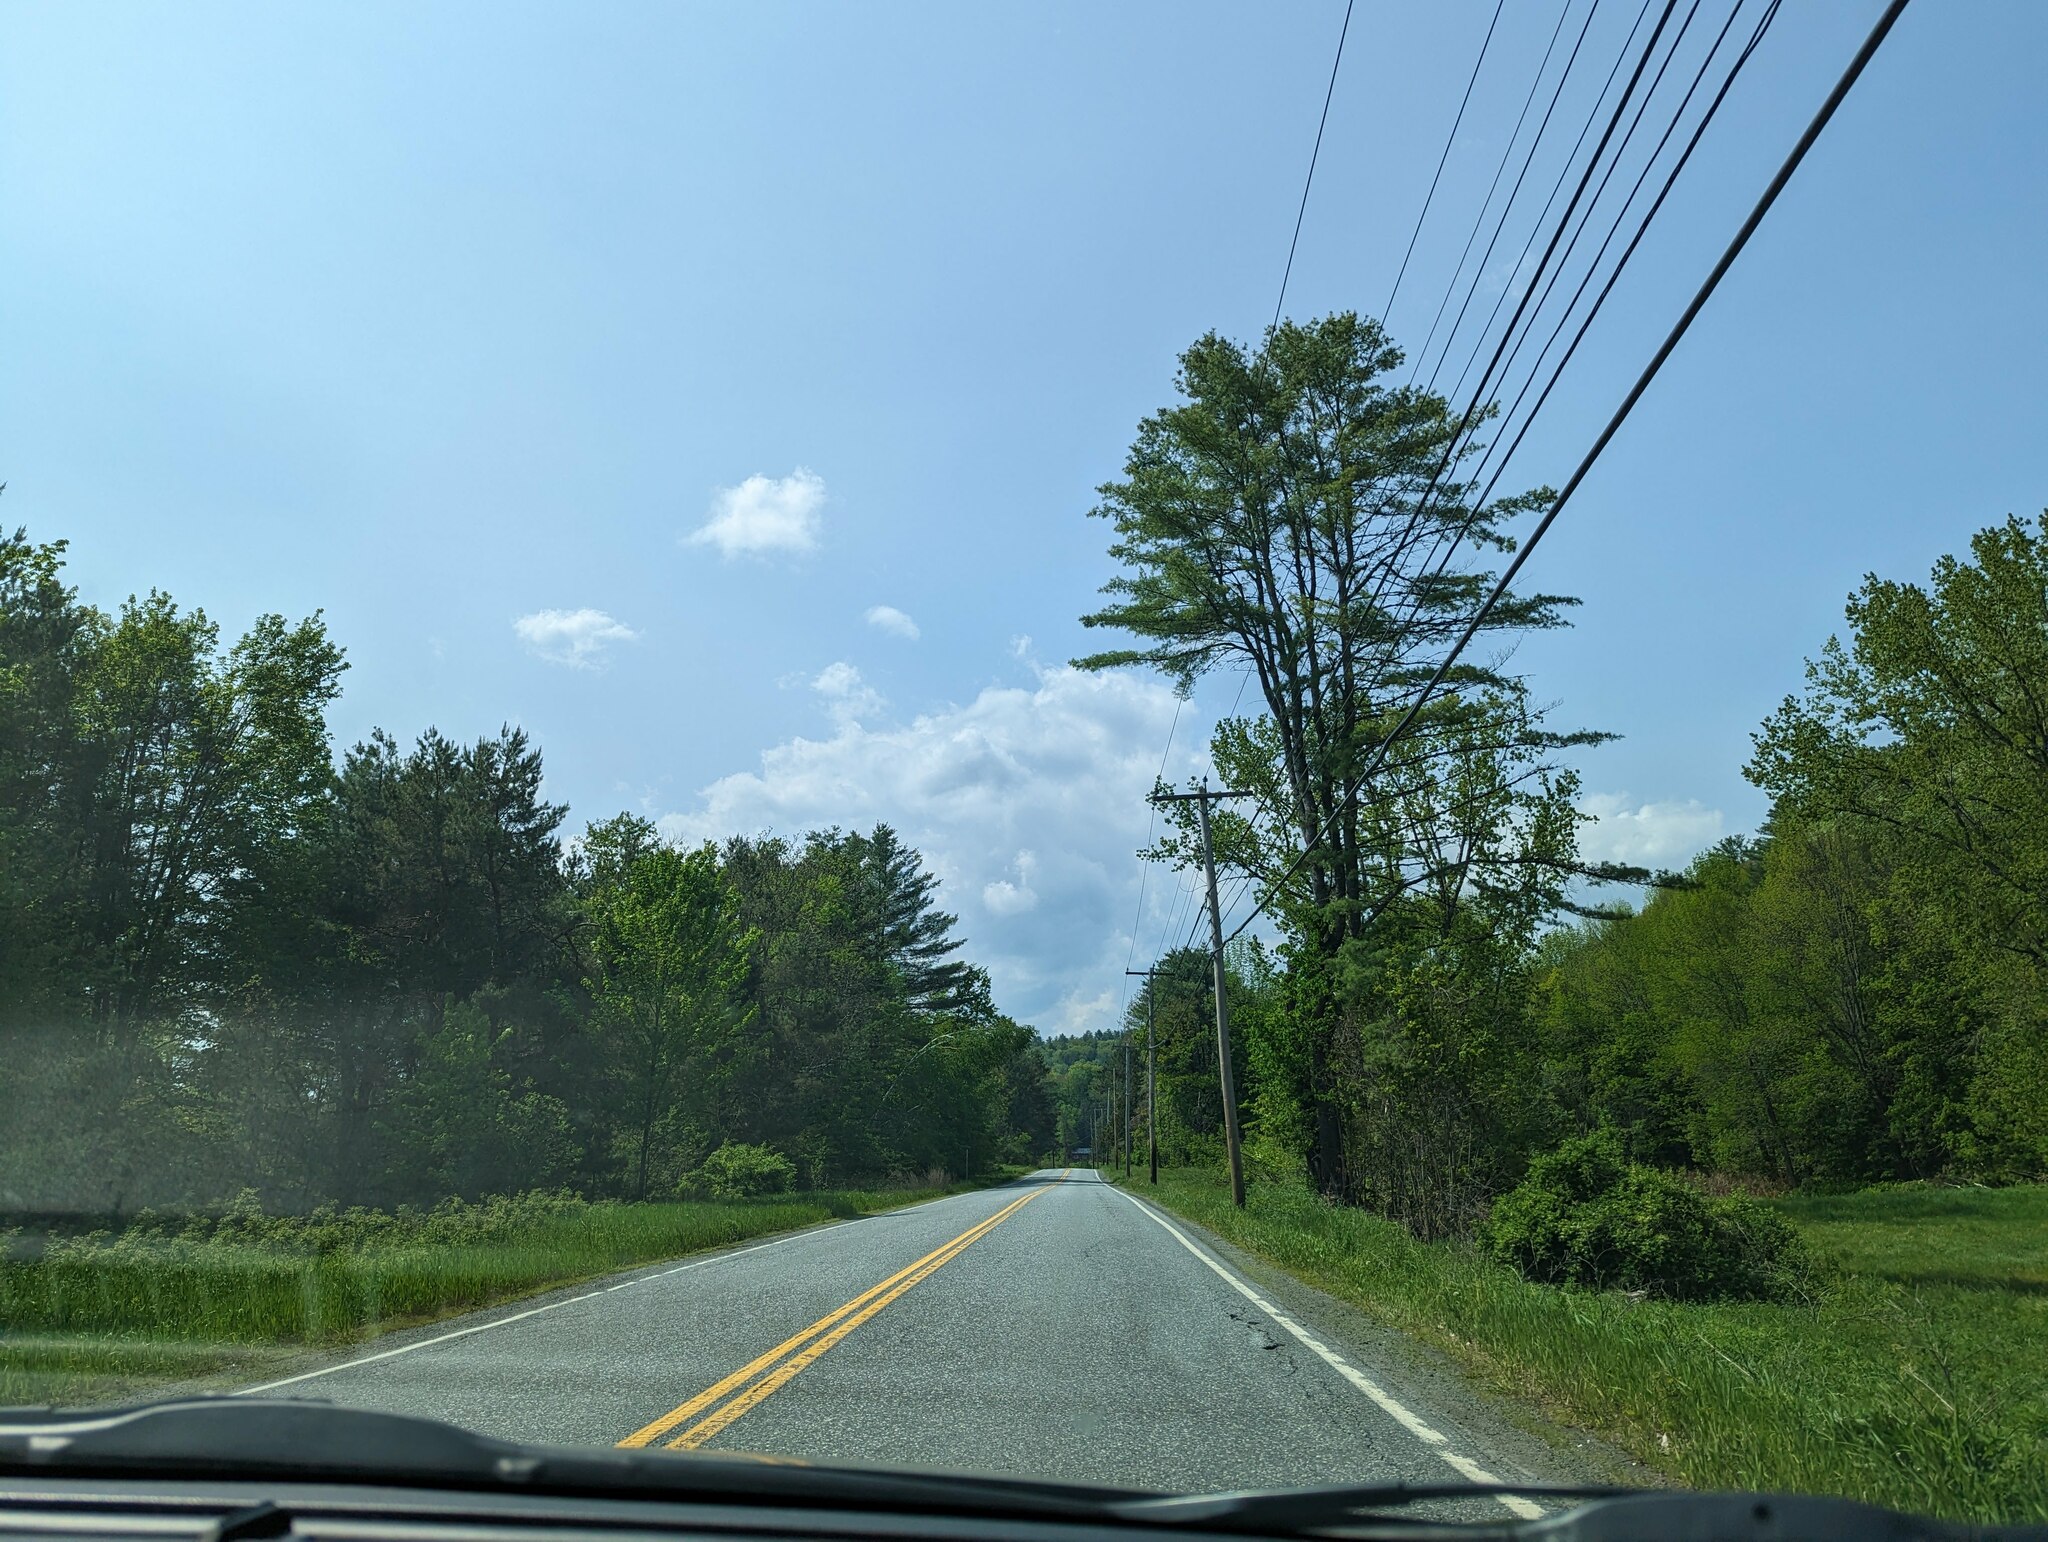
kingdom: Plantae
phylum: Tracheophyta
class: Pinopsida
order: Pinales
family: Pinaceae
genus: Pinus
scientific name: Pinus strobus
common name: Weymouth pine
